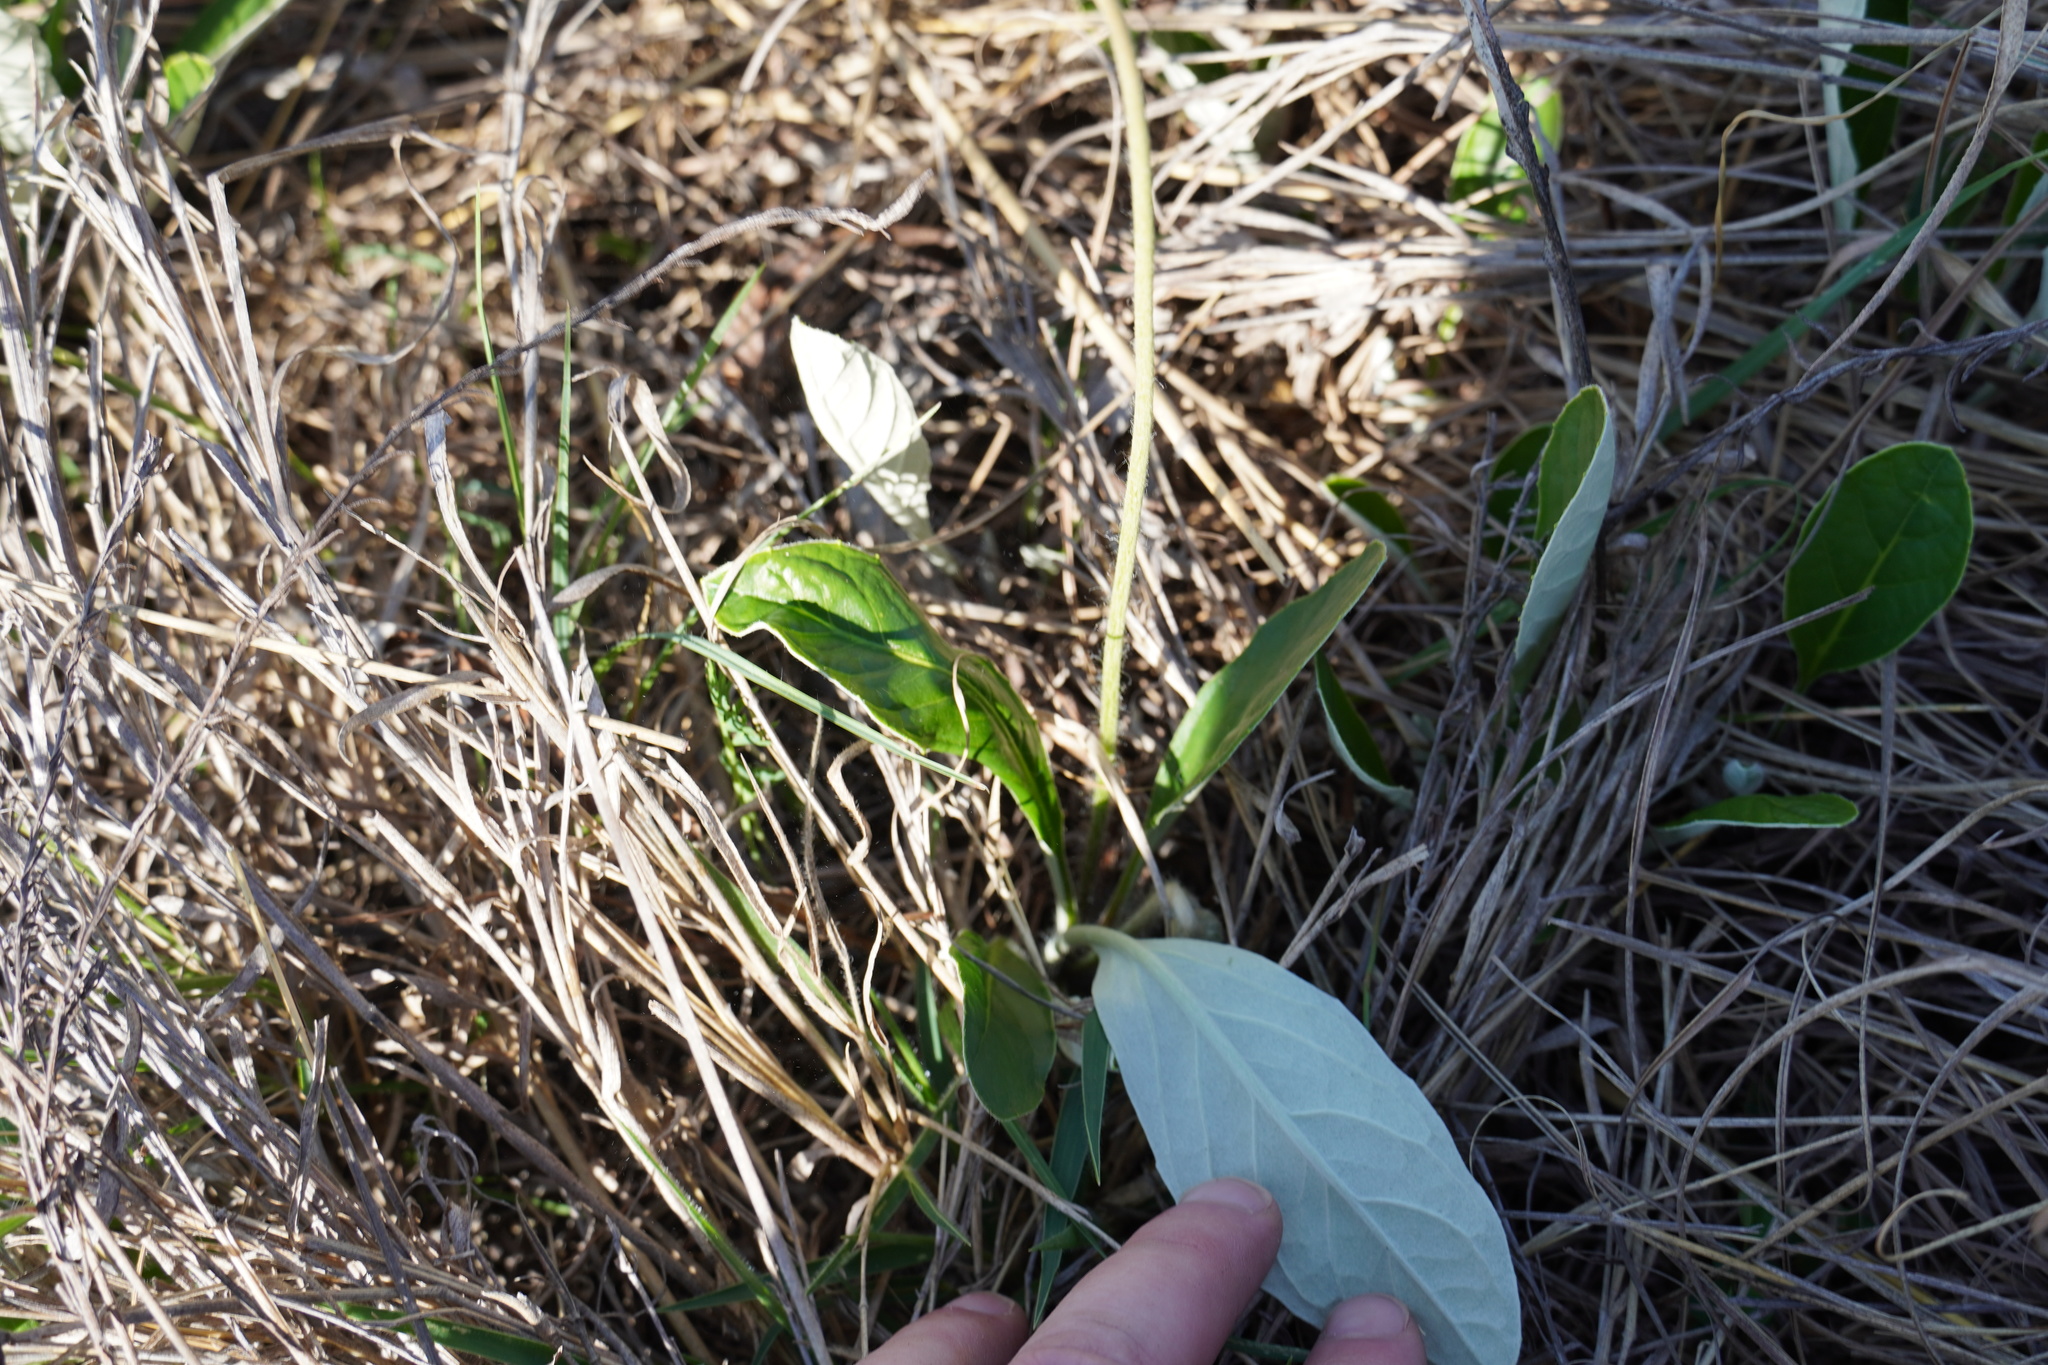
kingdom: Plantae
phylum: Tracheophyta
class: Magnoliopsida
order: Asterales
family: Asteraceae
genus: Gerbera
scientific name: Gerbera ambigua
